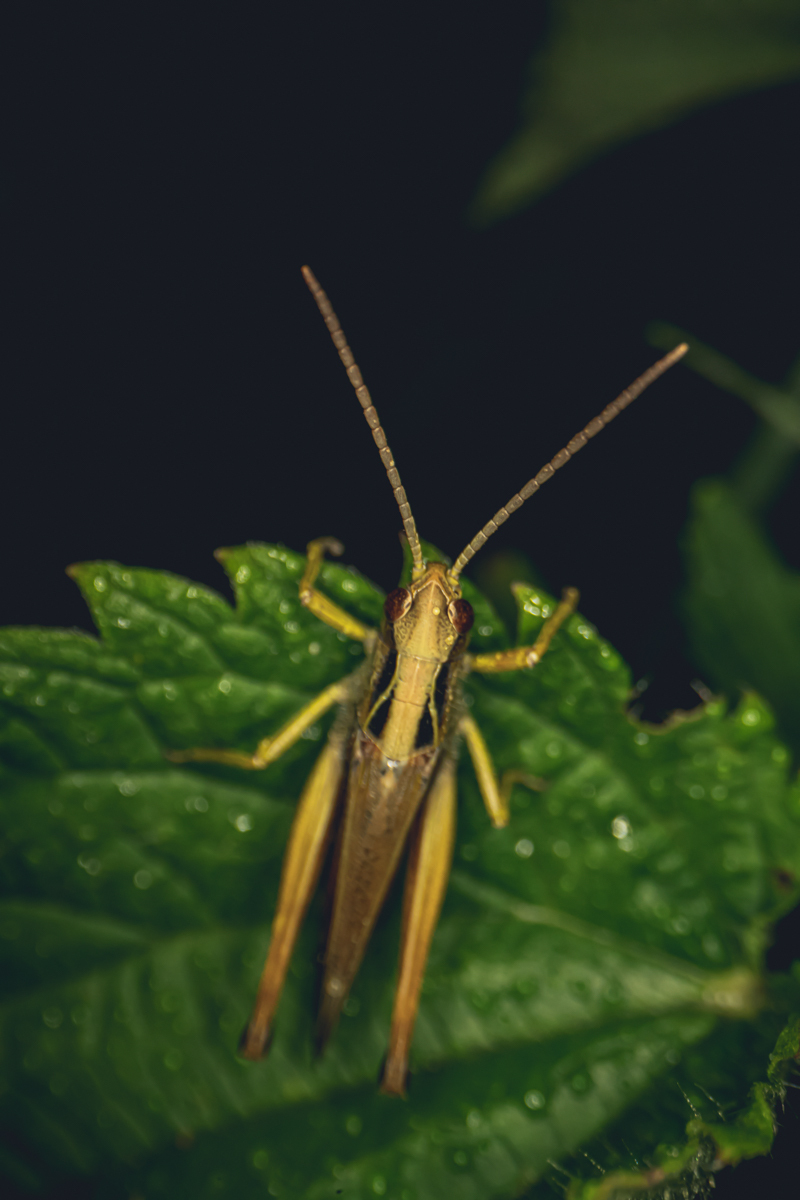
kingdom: Animalia
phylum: Arthropoda
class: Insecta
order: Orthoptera
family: Acrididae
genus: Omocestus
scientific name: Omocestus viridulus
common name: Common green grasshopper
